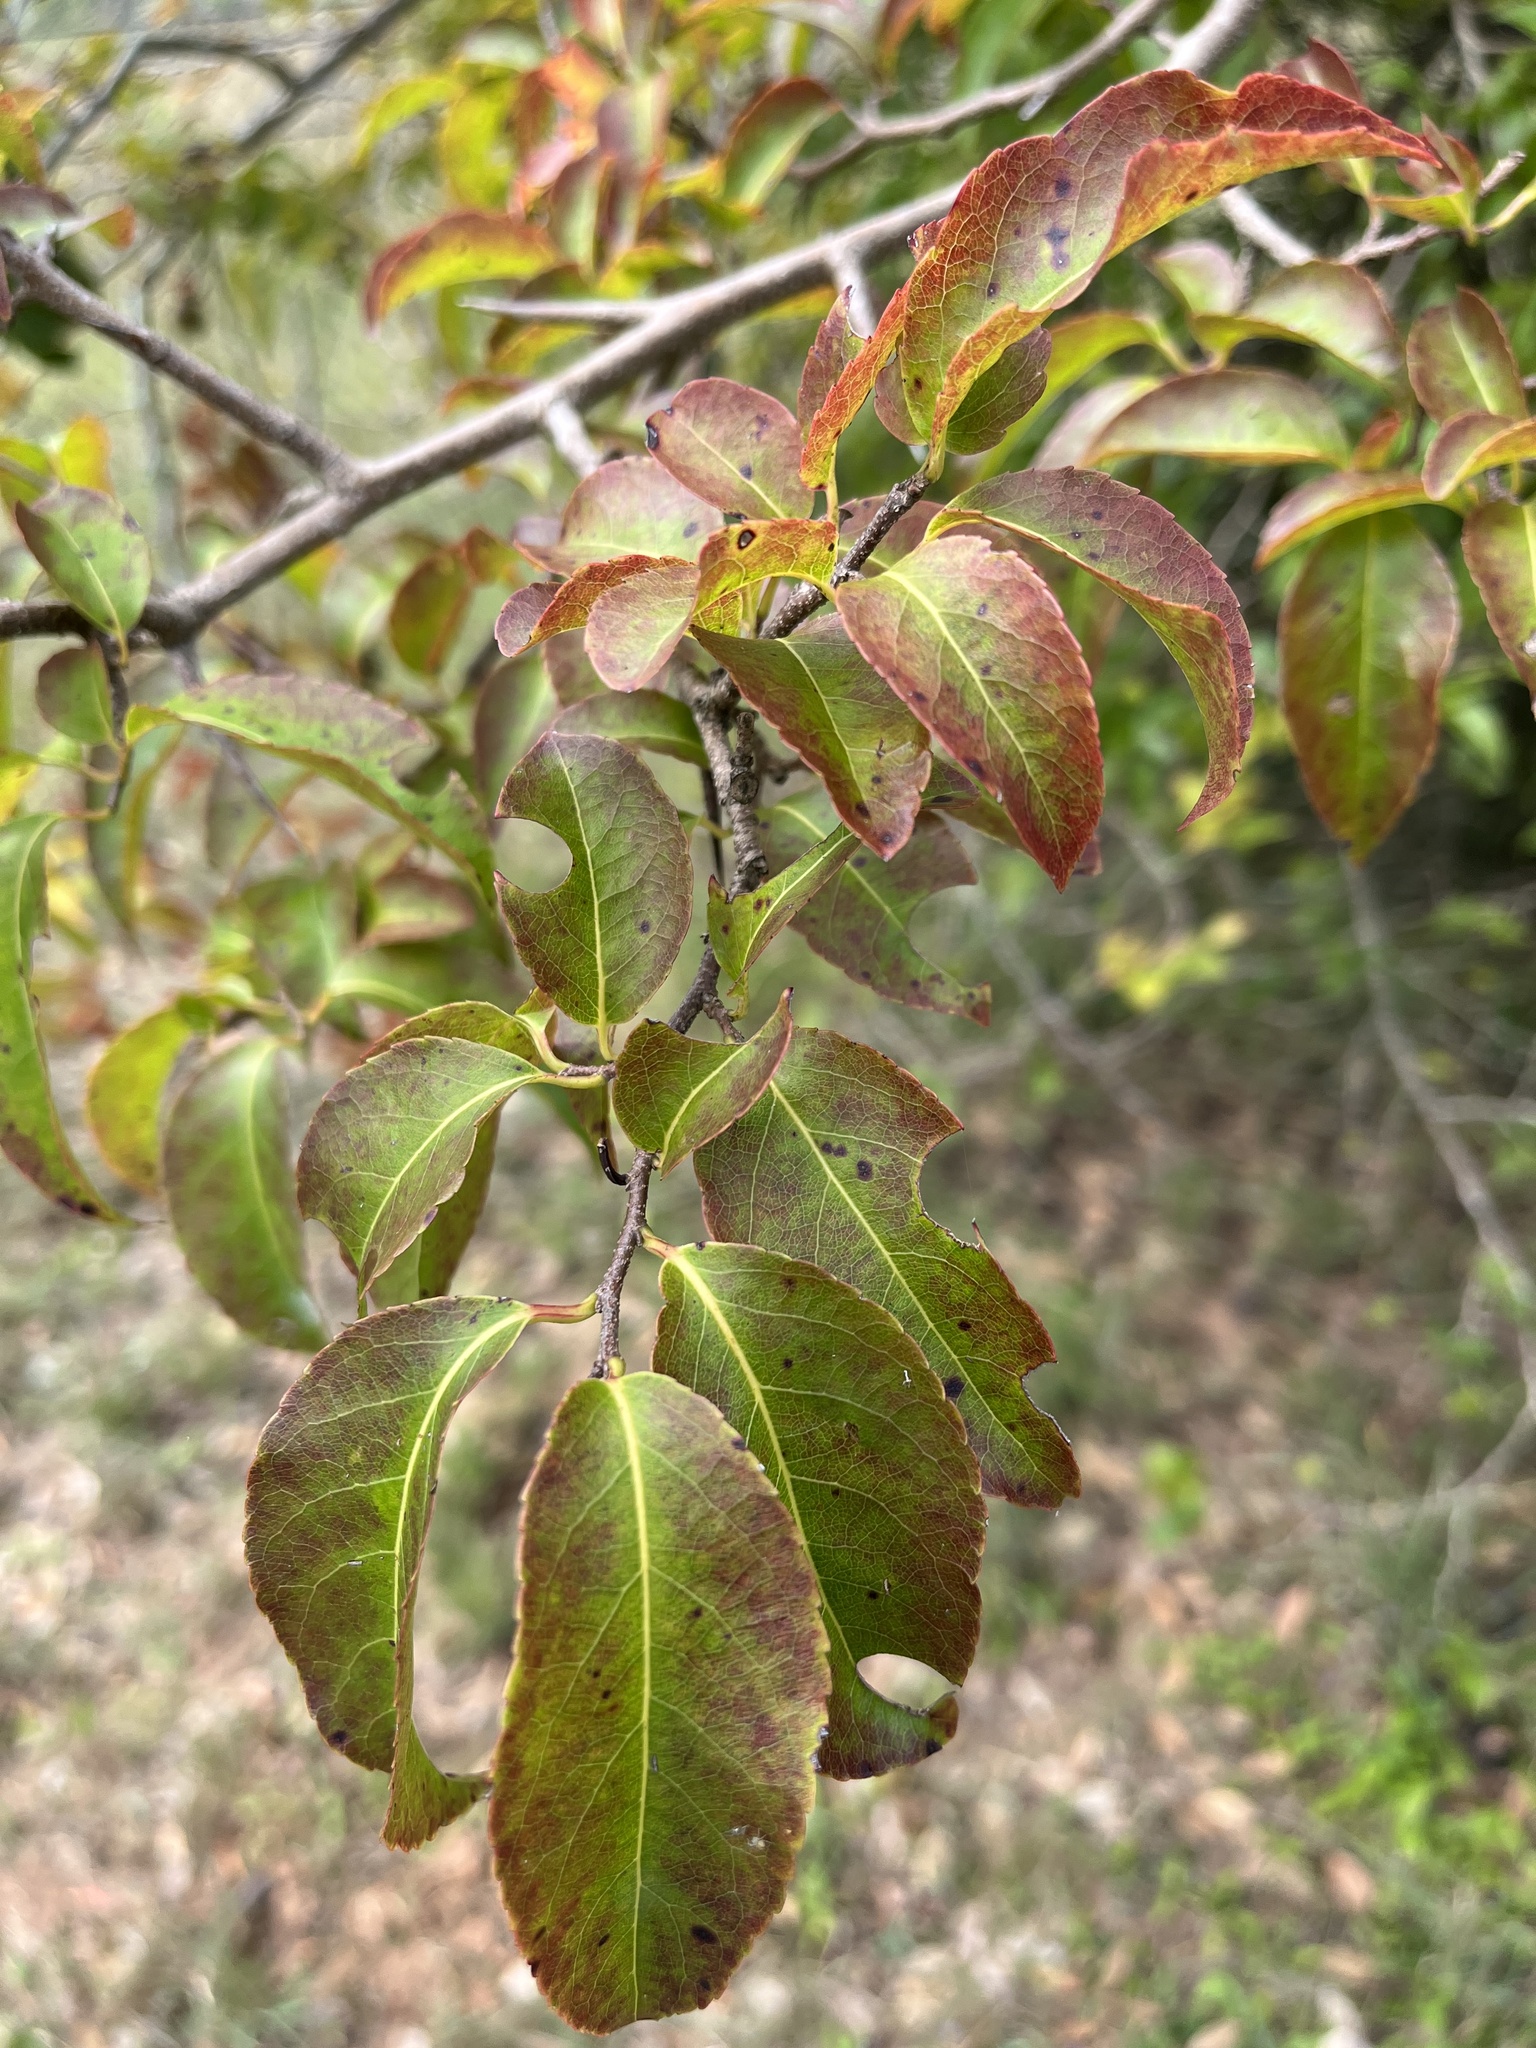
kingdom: Plantae
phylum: Tracheophyta
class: Magnoliopsida
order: Malpighiales
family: Salicaceae
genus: Oncoba
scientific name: Oncoba spinosa
